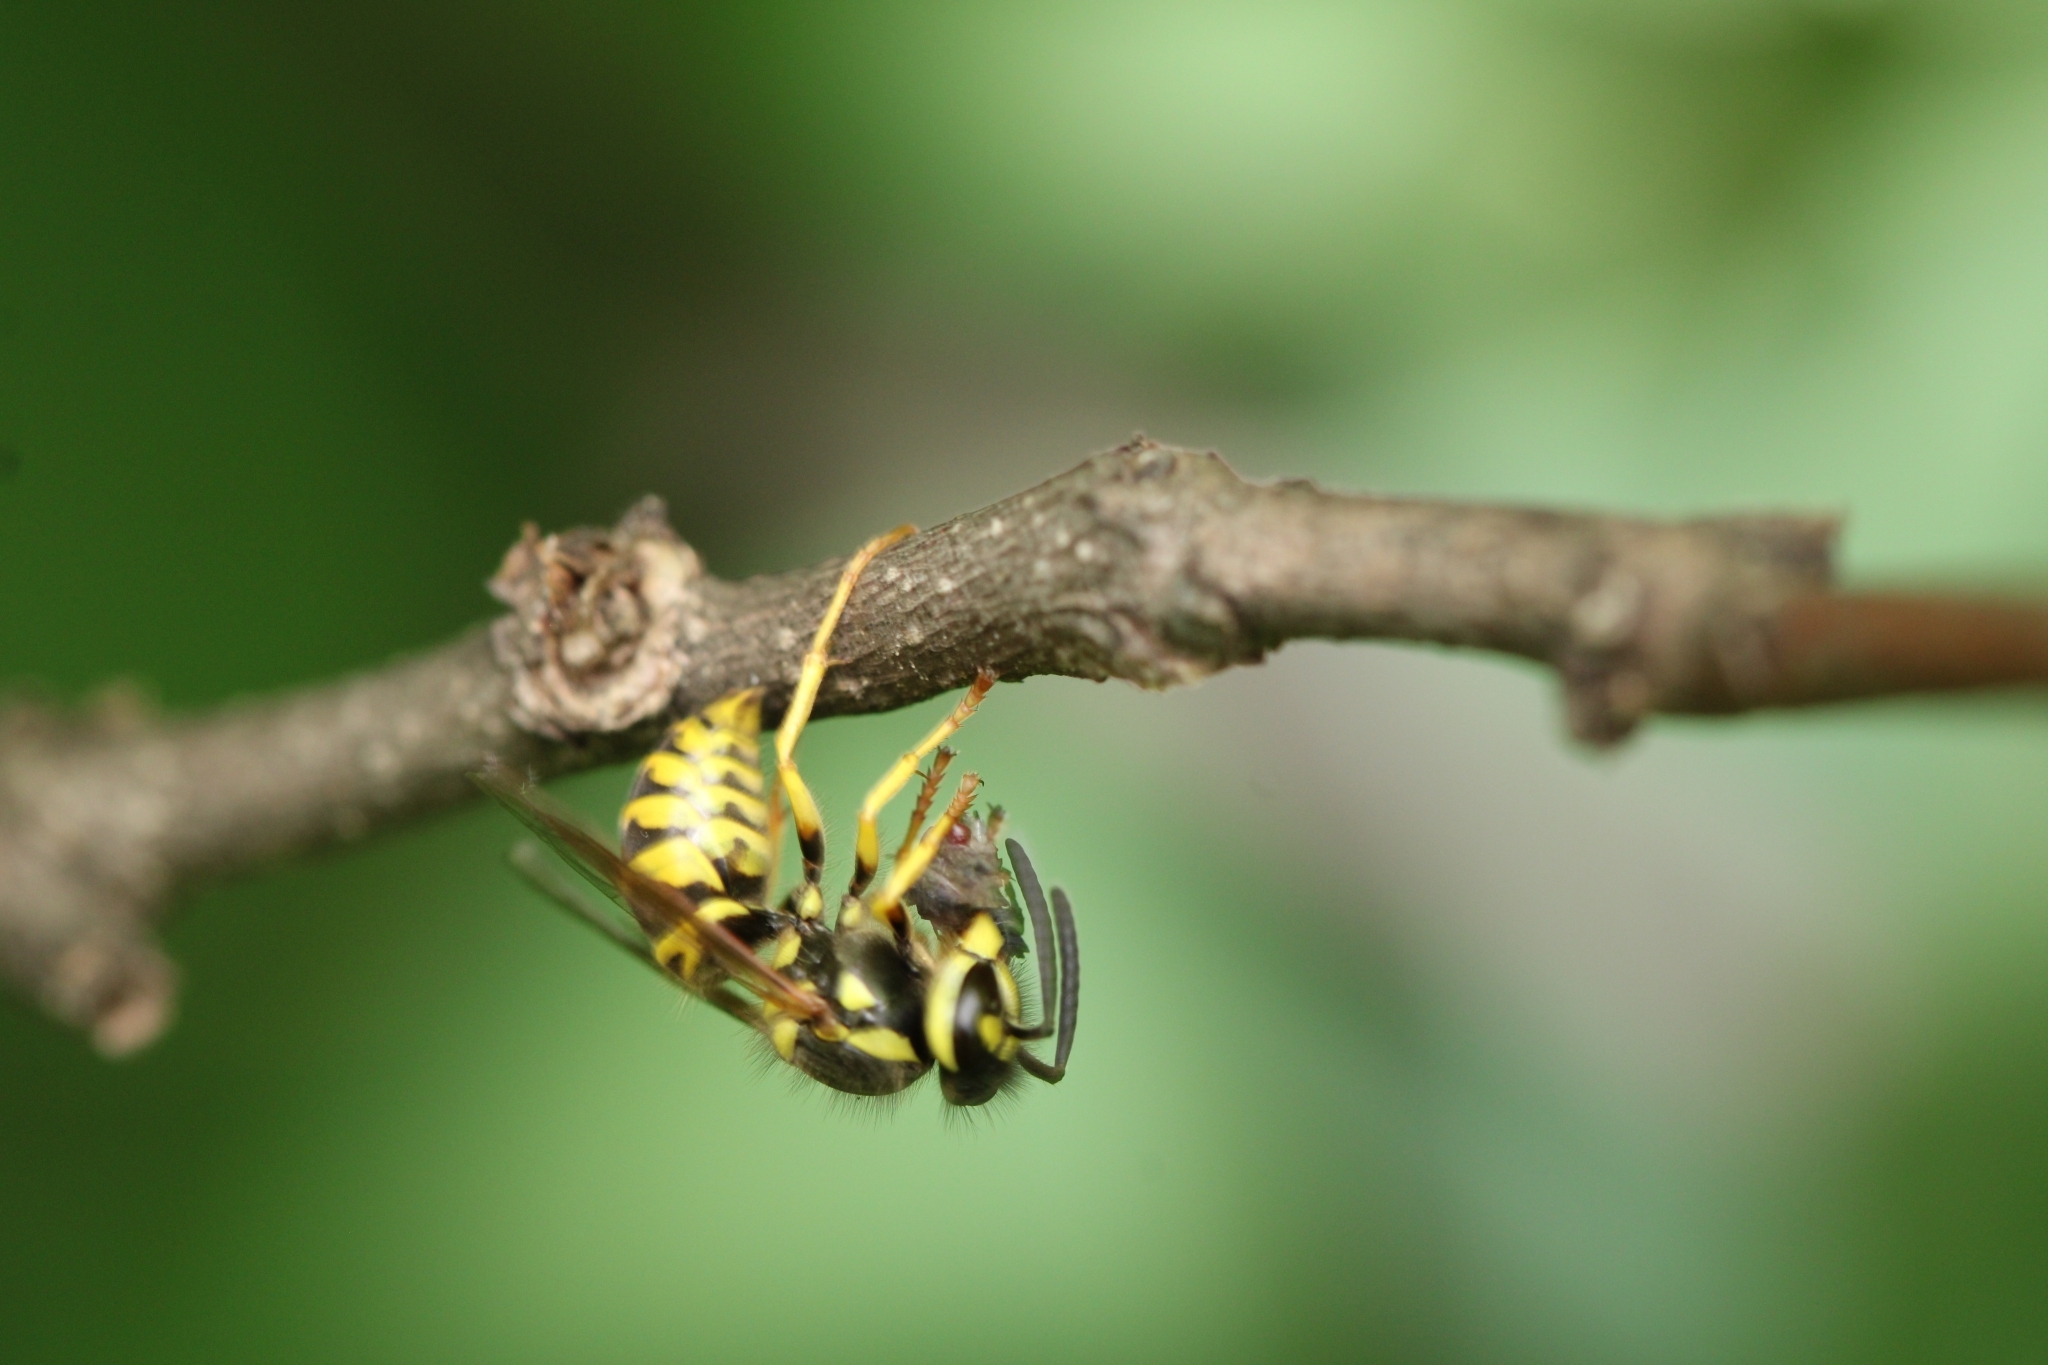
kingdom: Animalia
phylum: Arthropoda
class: Insecta
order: Hymenoptera
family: Vespidae
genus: Vespula
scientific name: Vespula maculifrons
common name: Eastern yellowjacket
